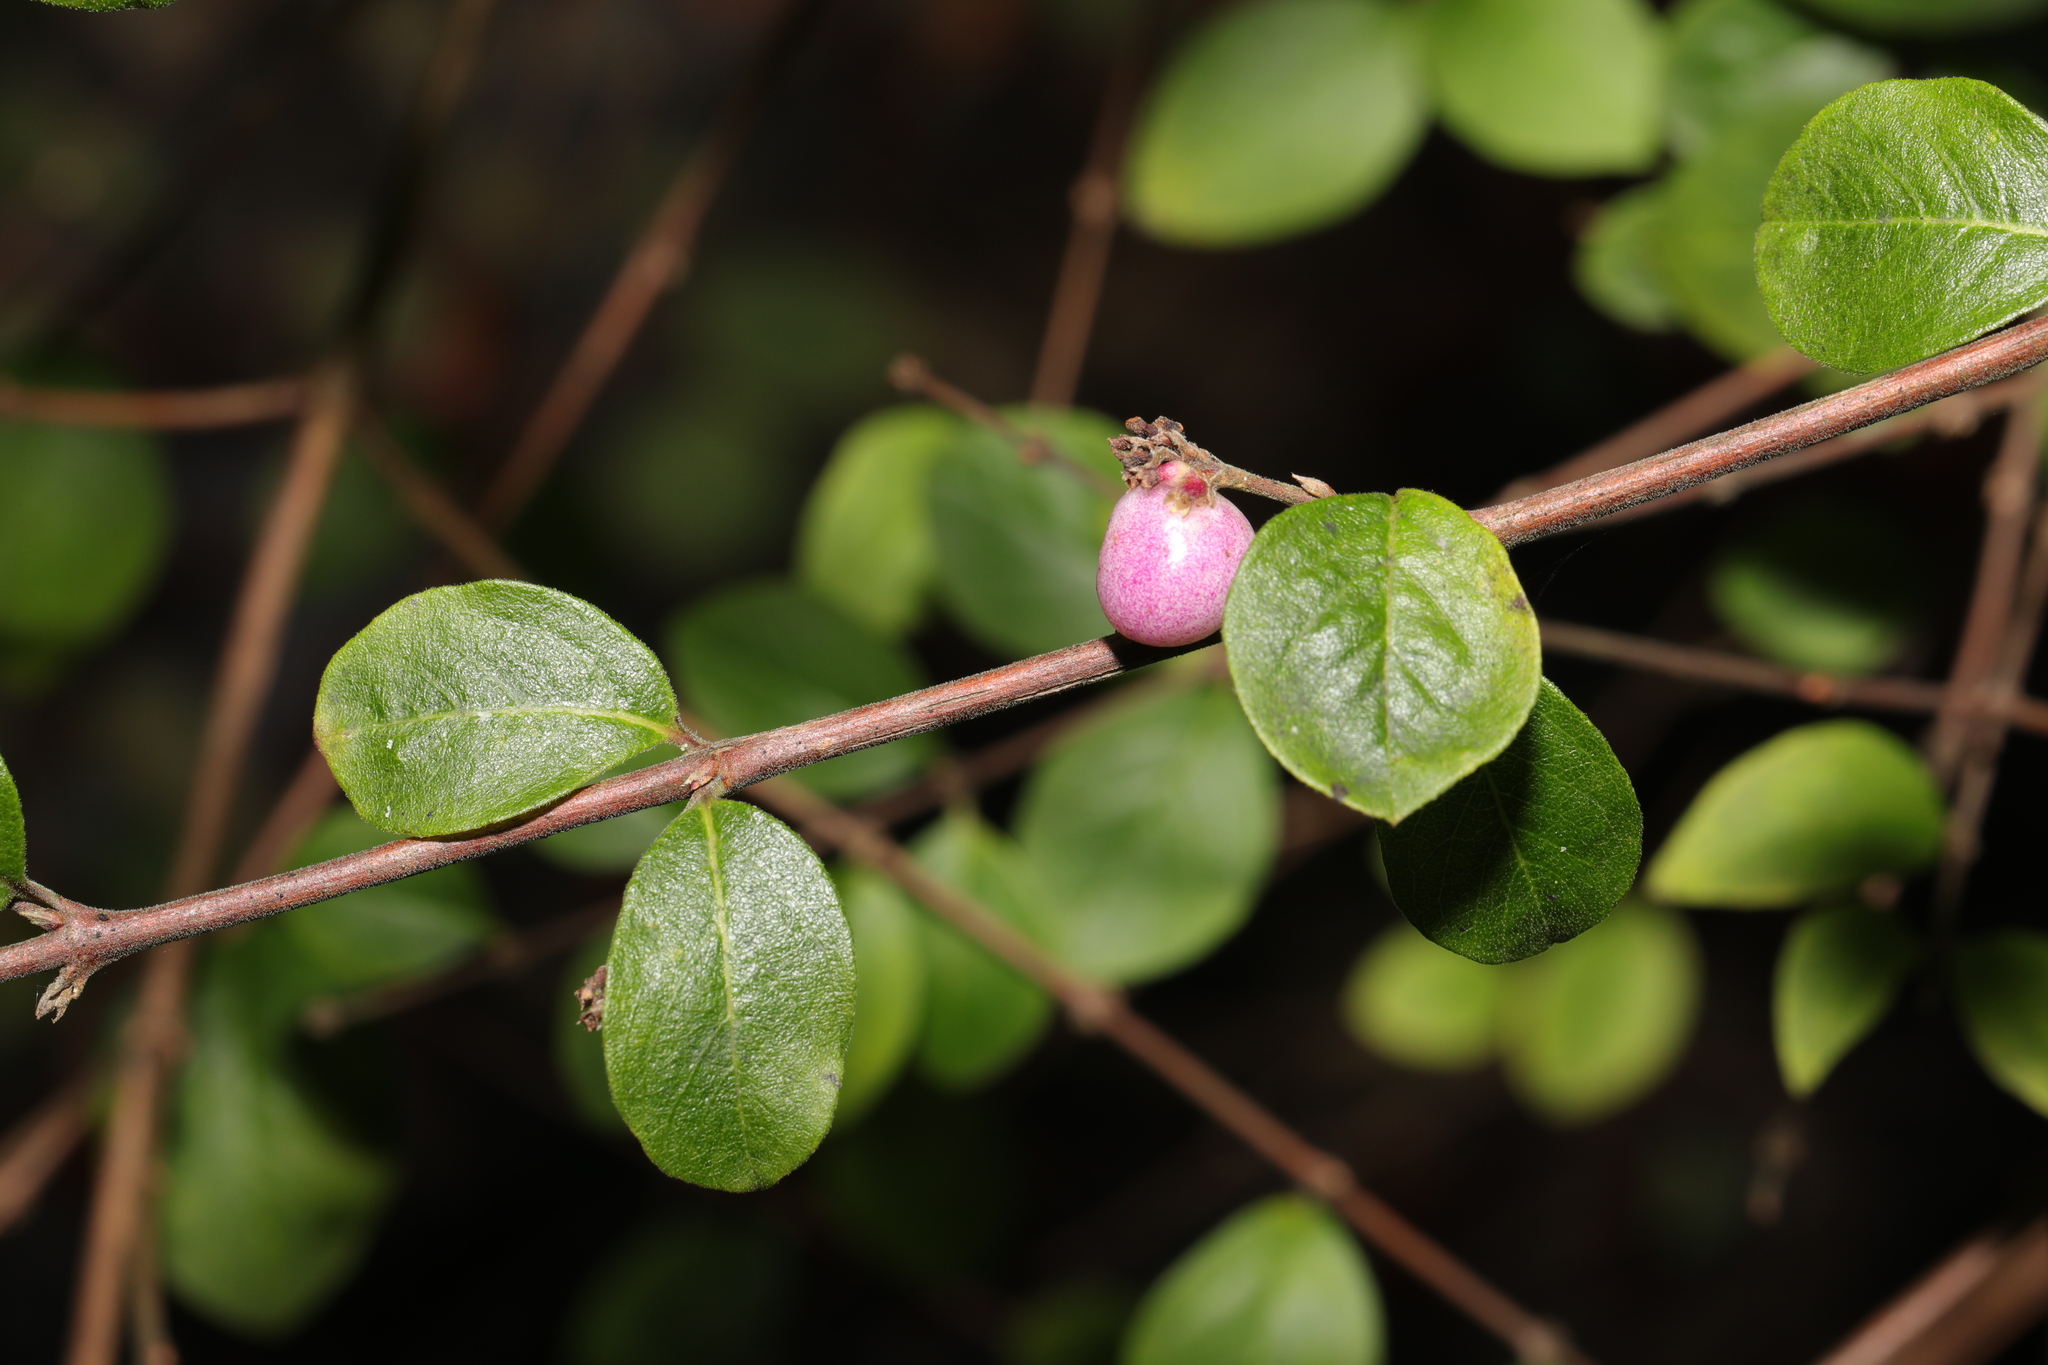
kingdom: Plantae
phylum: Tracheophyta
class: Magnoliopsida
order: Dipsacales
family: Caprifoliaceae
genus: Symphoricarpos
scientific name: Symphoricarpos chenaultii
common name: Hybrid coralberry
